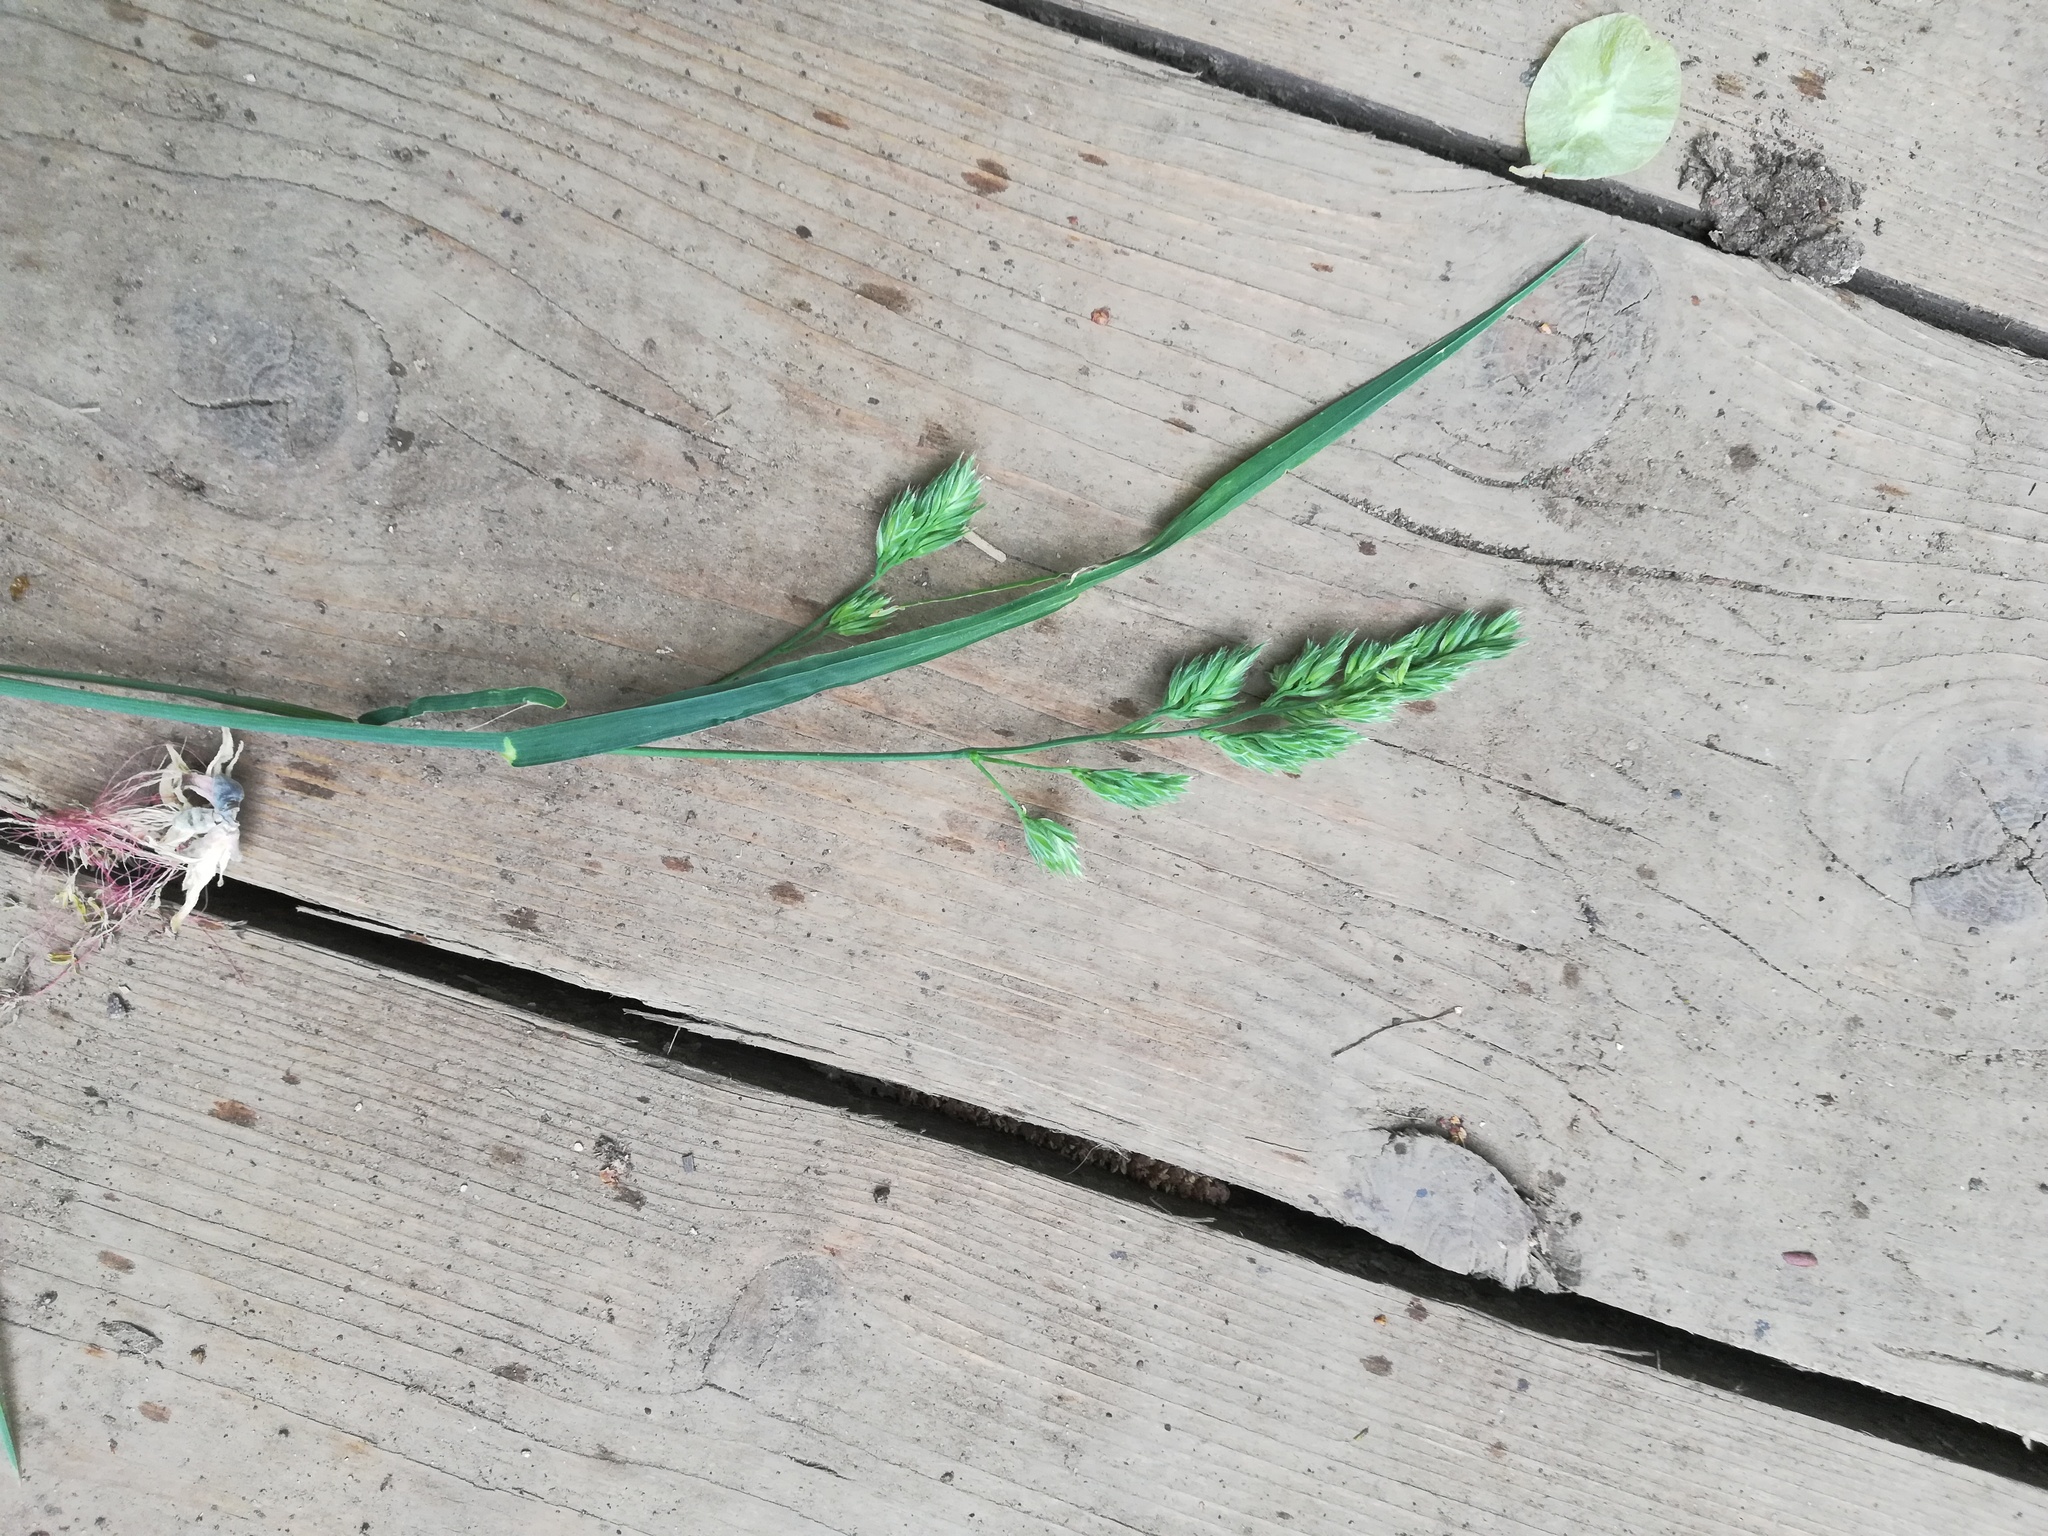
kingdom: Plantae
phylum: Tracheophyta
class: Liliopsida
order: Poales
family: Poaceae
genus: Dactylis
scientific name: Dactylis glomerata
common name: Orchardgrass
